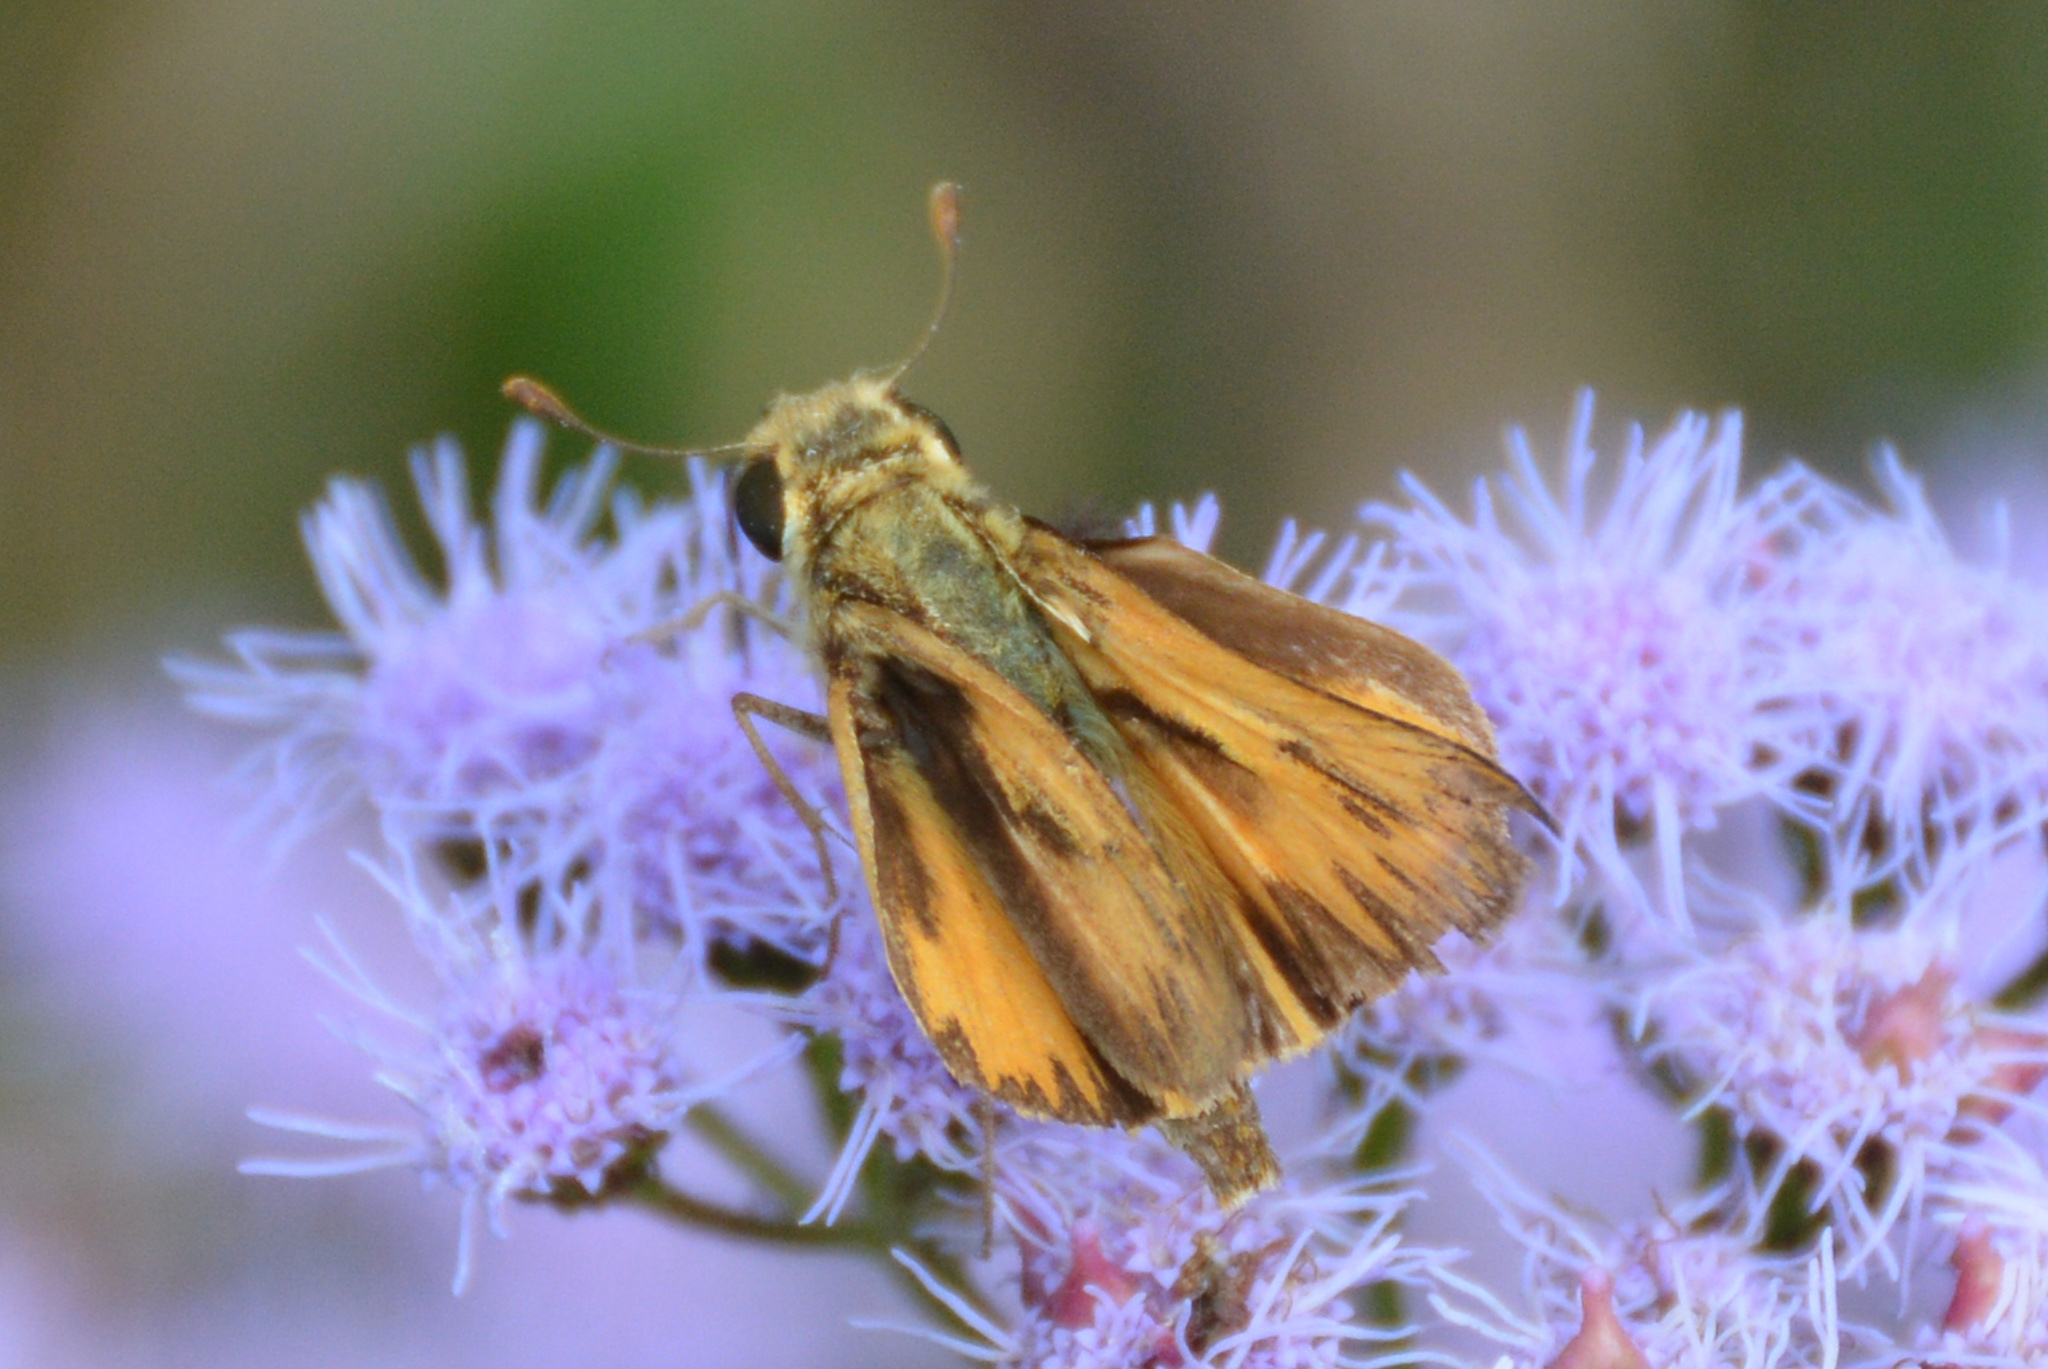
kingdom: Animalia
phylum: Arthropoda
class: Insecta
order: Lepidoptera
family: Hesperiidae
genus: Hylephila
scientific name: Hylephila phyleus
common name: Fiery skipper
